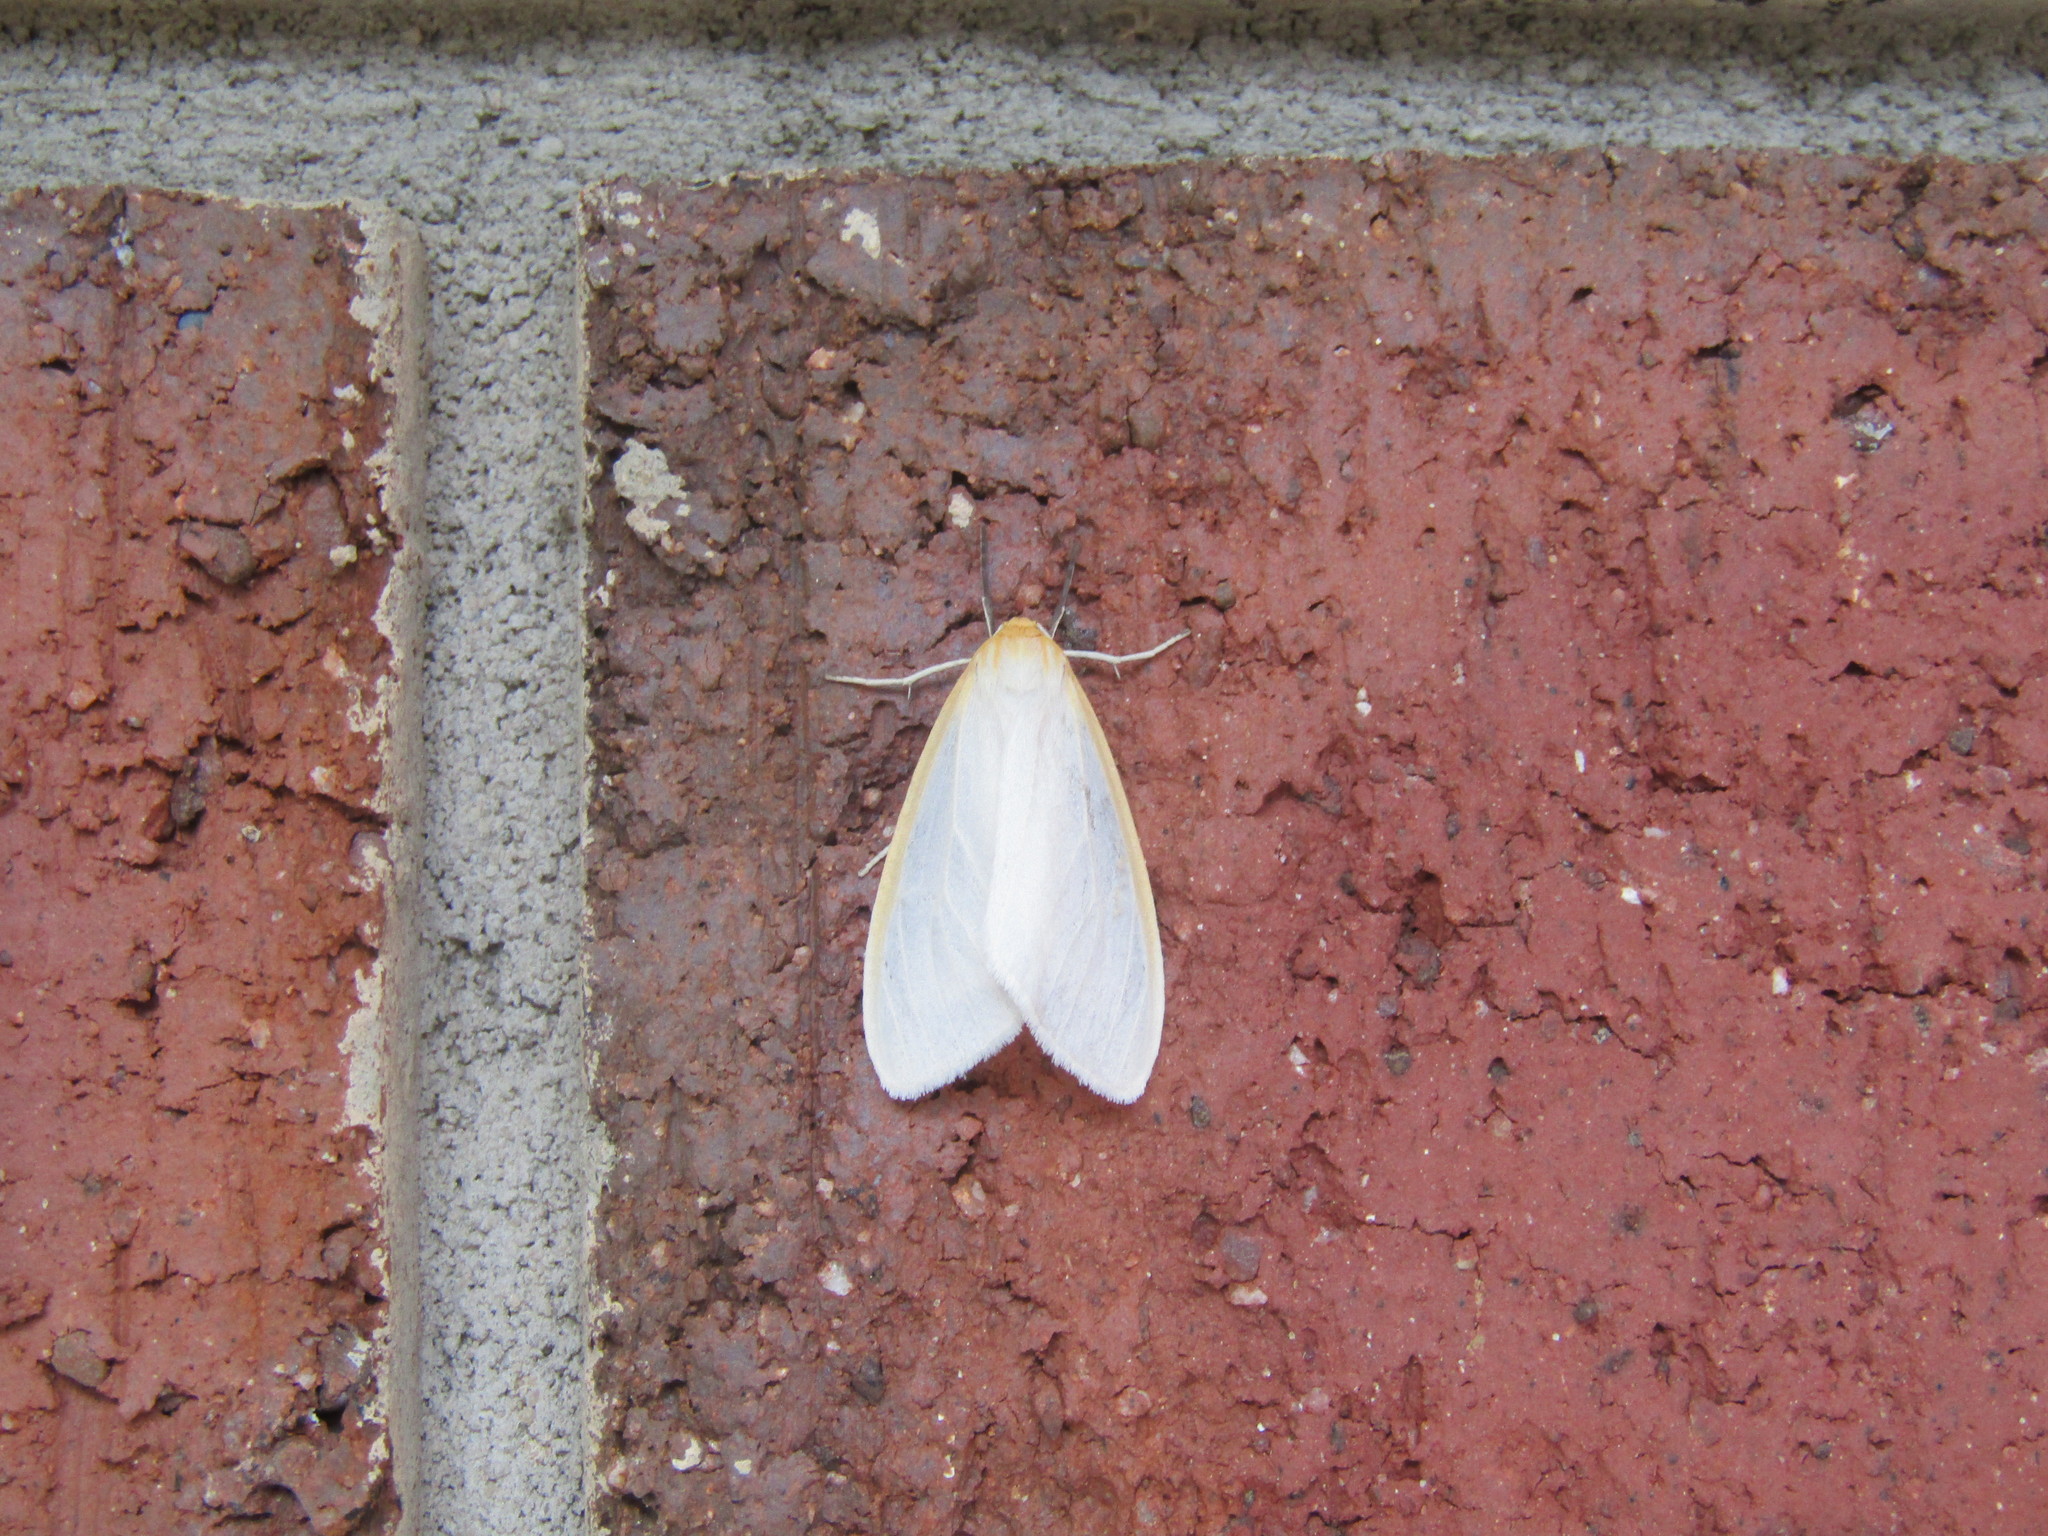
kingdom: Animalia
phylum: Arthropoda
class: Insecta
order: Lepidoptera
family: Erebidae
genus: Cycnia
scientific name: Cycnia tenera
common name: Delicate cycnia moth
